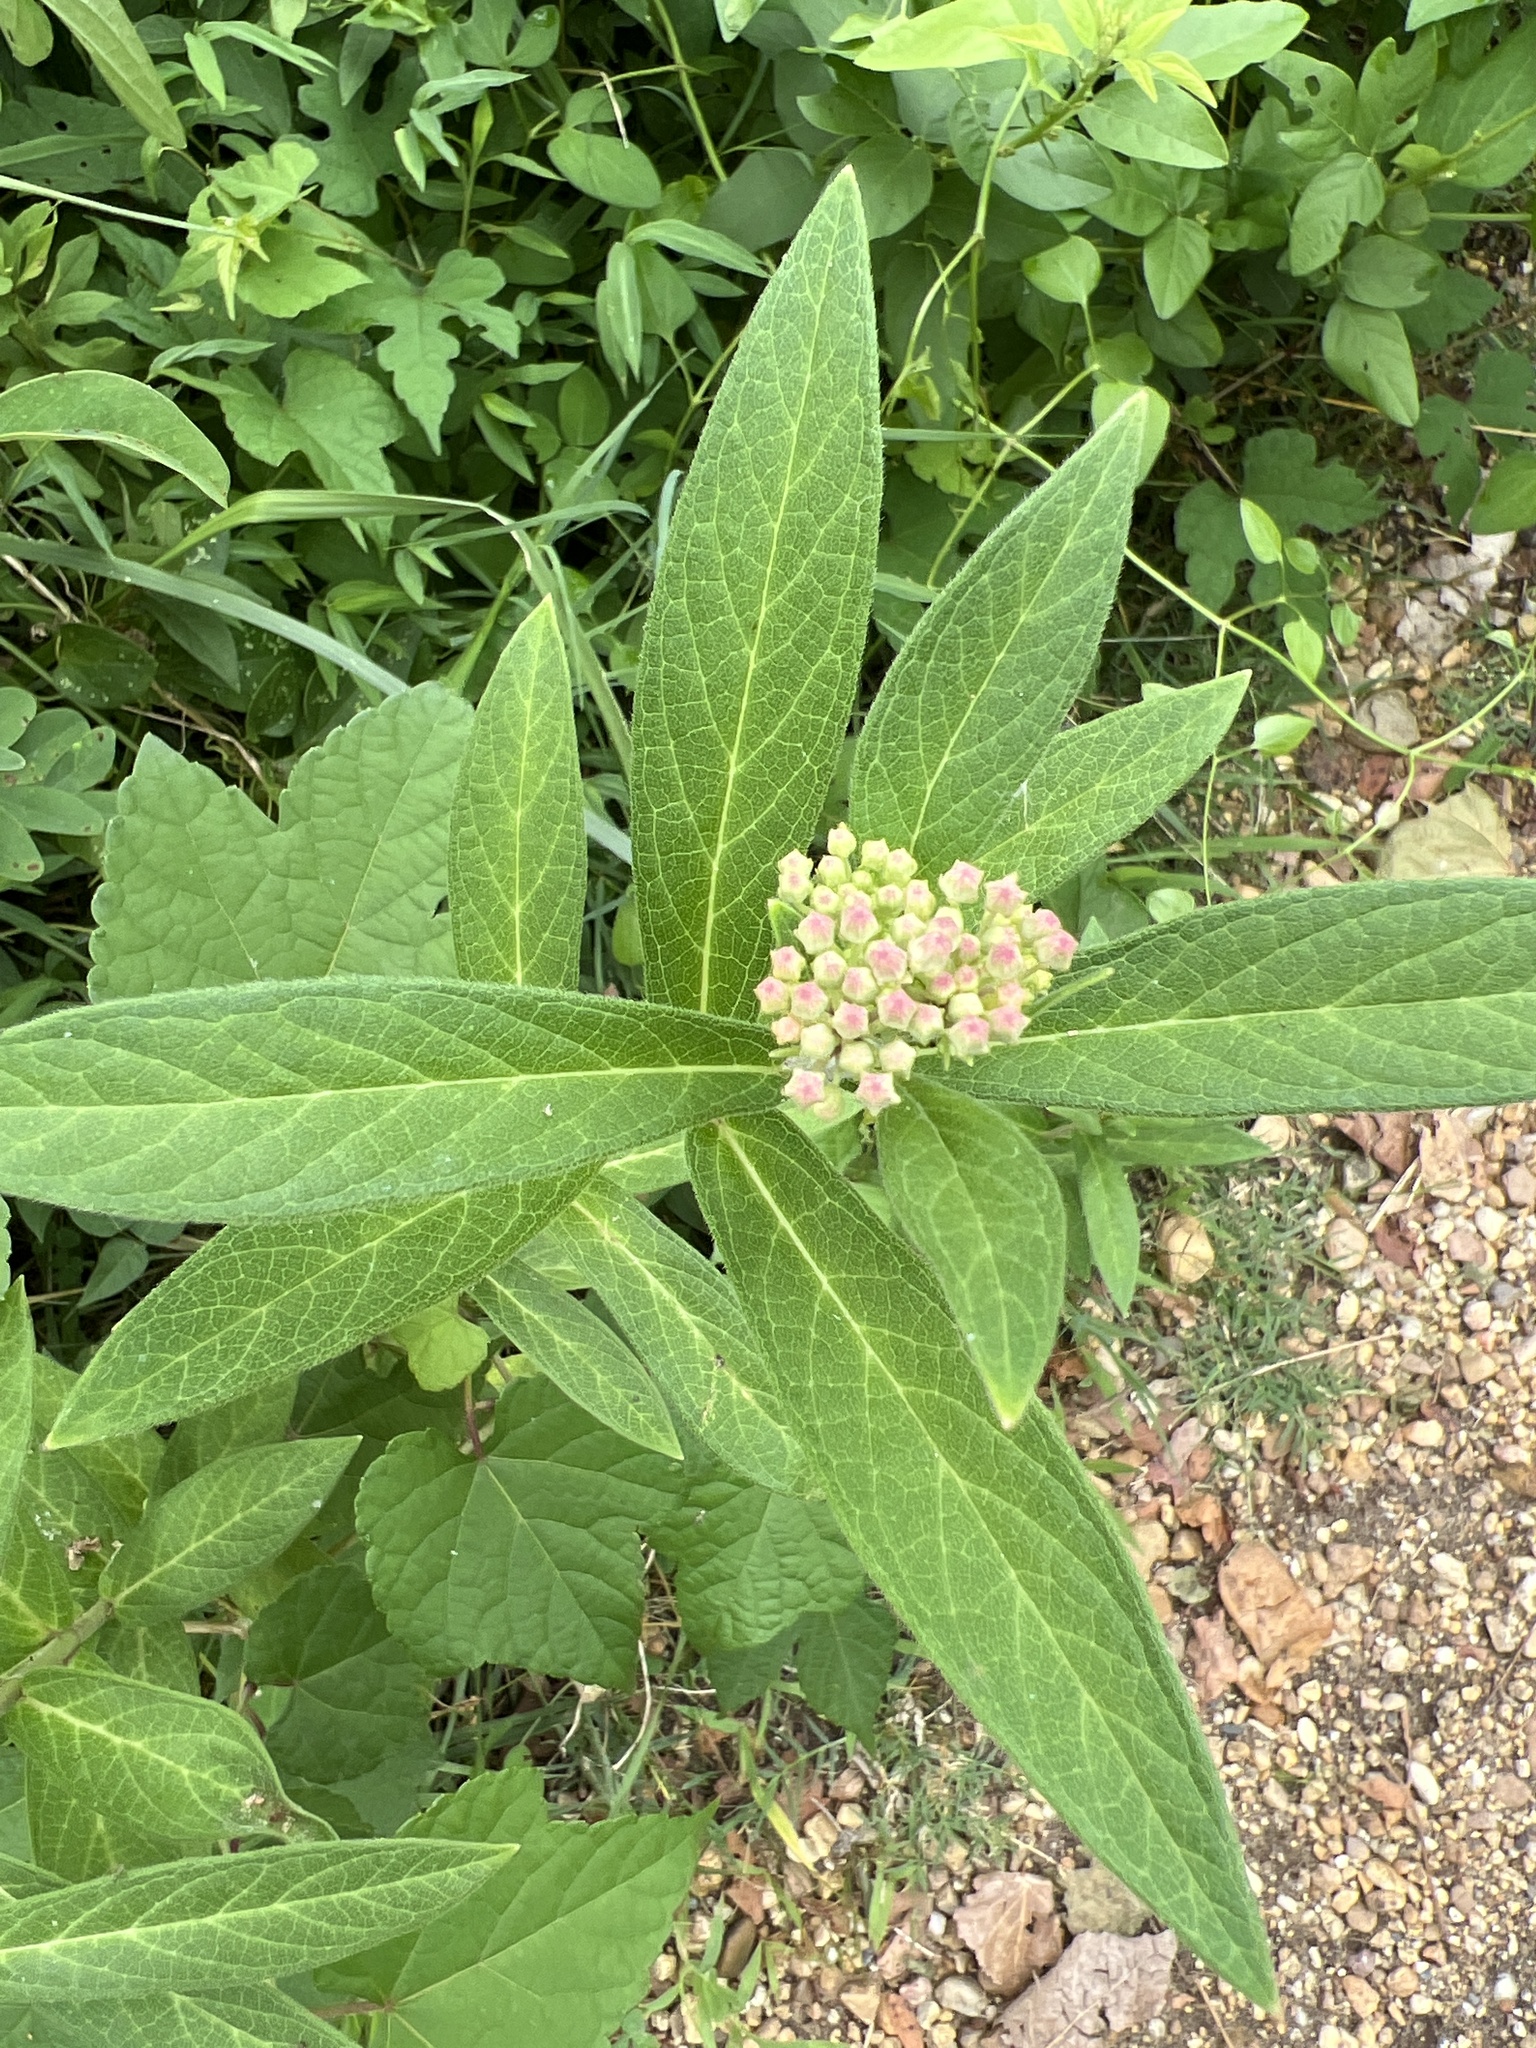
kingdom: Plantae
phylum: Tracheophyta
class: Magnoliopsida
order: Gentianales
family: Apocynaceae
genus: Asclepias
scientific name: Asclepias incarnata
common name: Swamp milkweed
